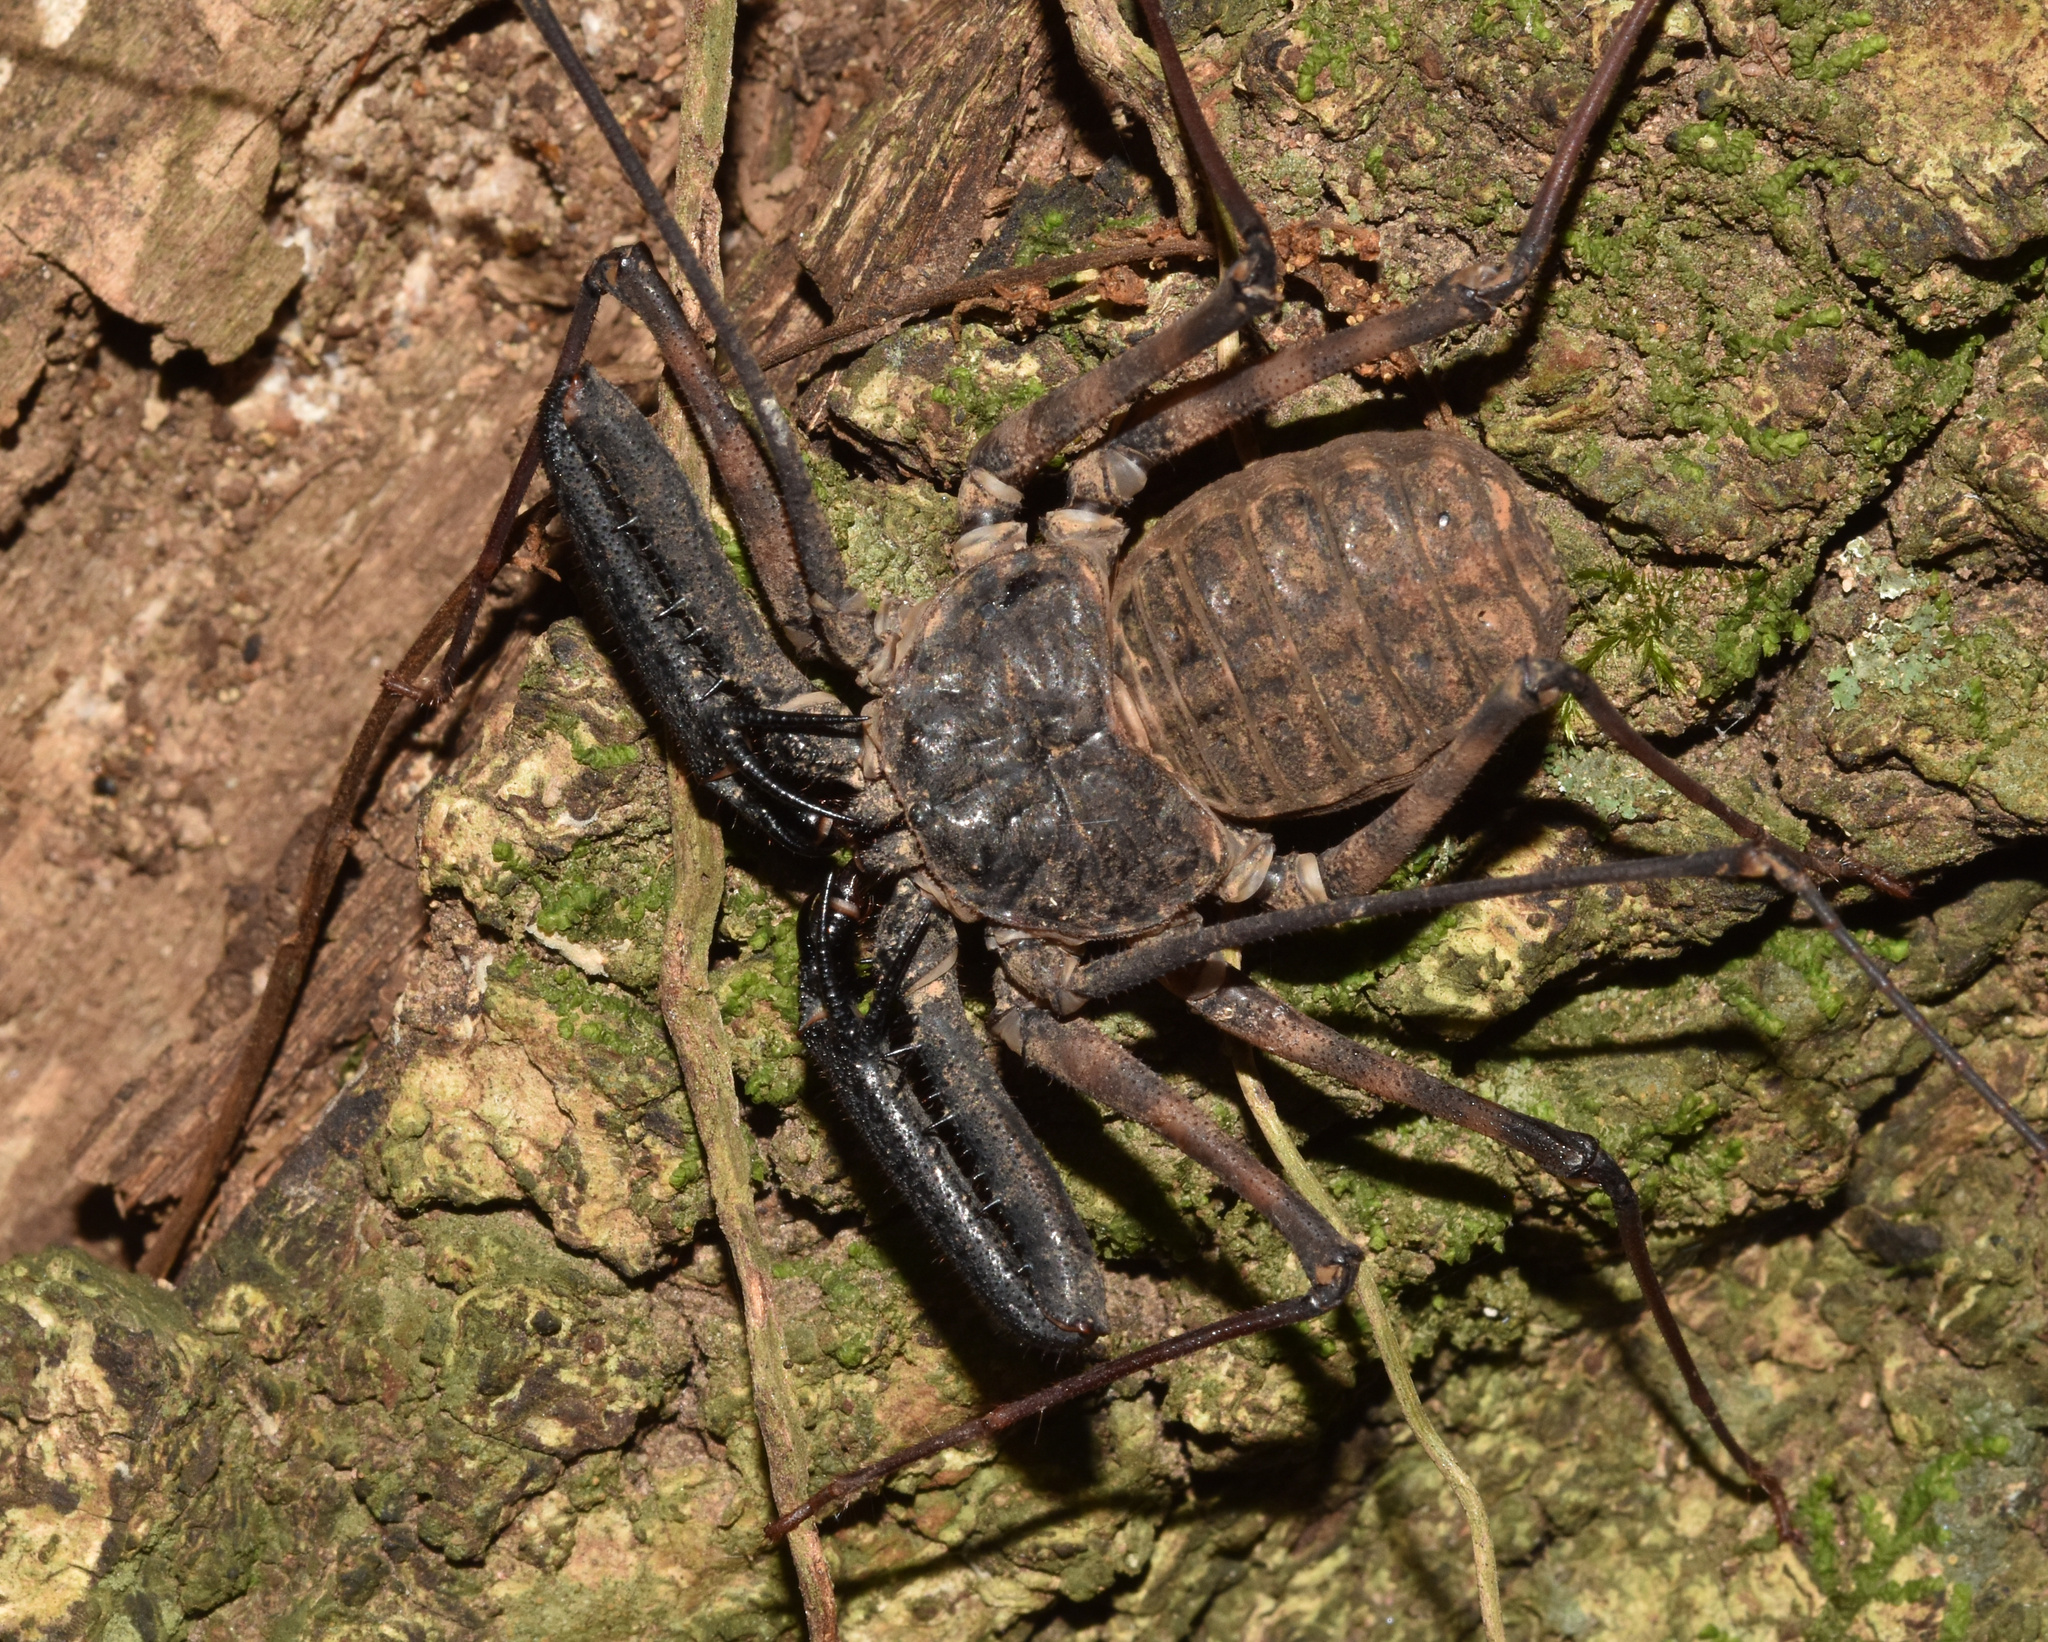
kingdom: Animalia
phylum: Arthropoda
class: Arachnida
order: Amblypygi
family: Phrynichidae
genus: Damon
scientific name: Damon annulatipes
